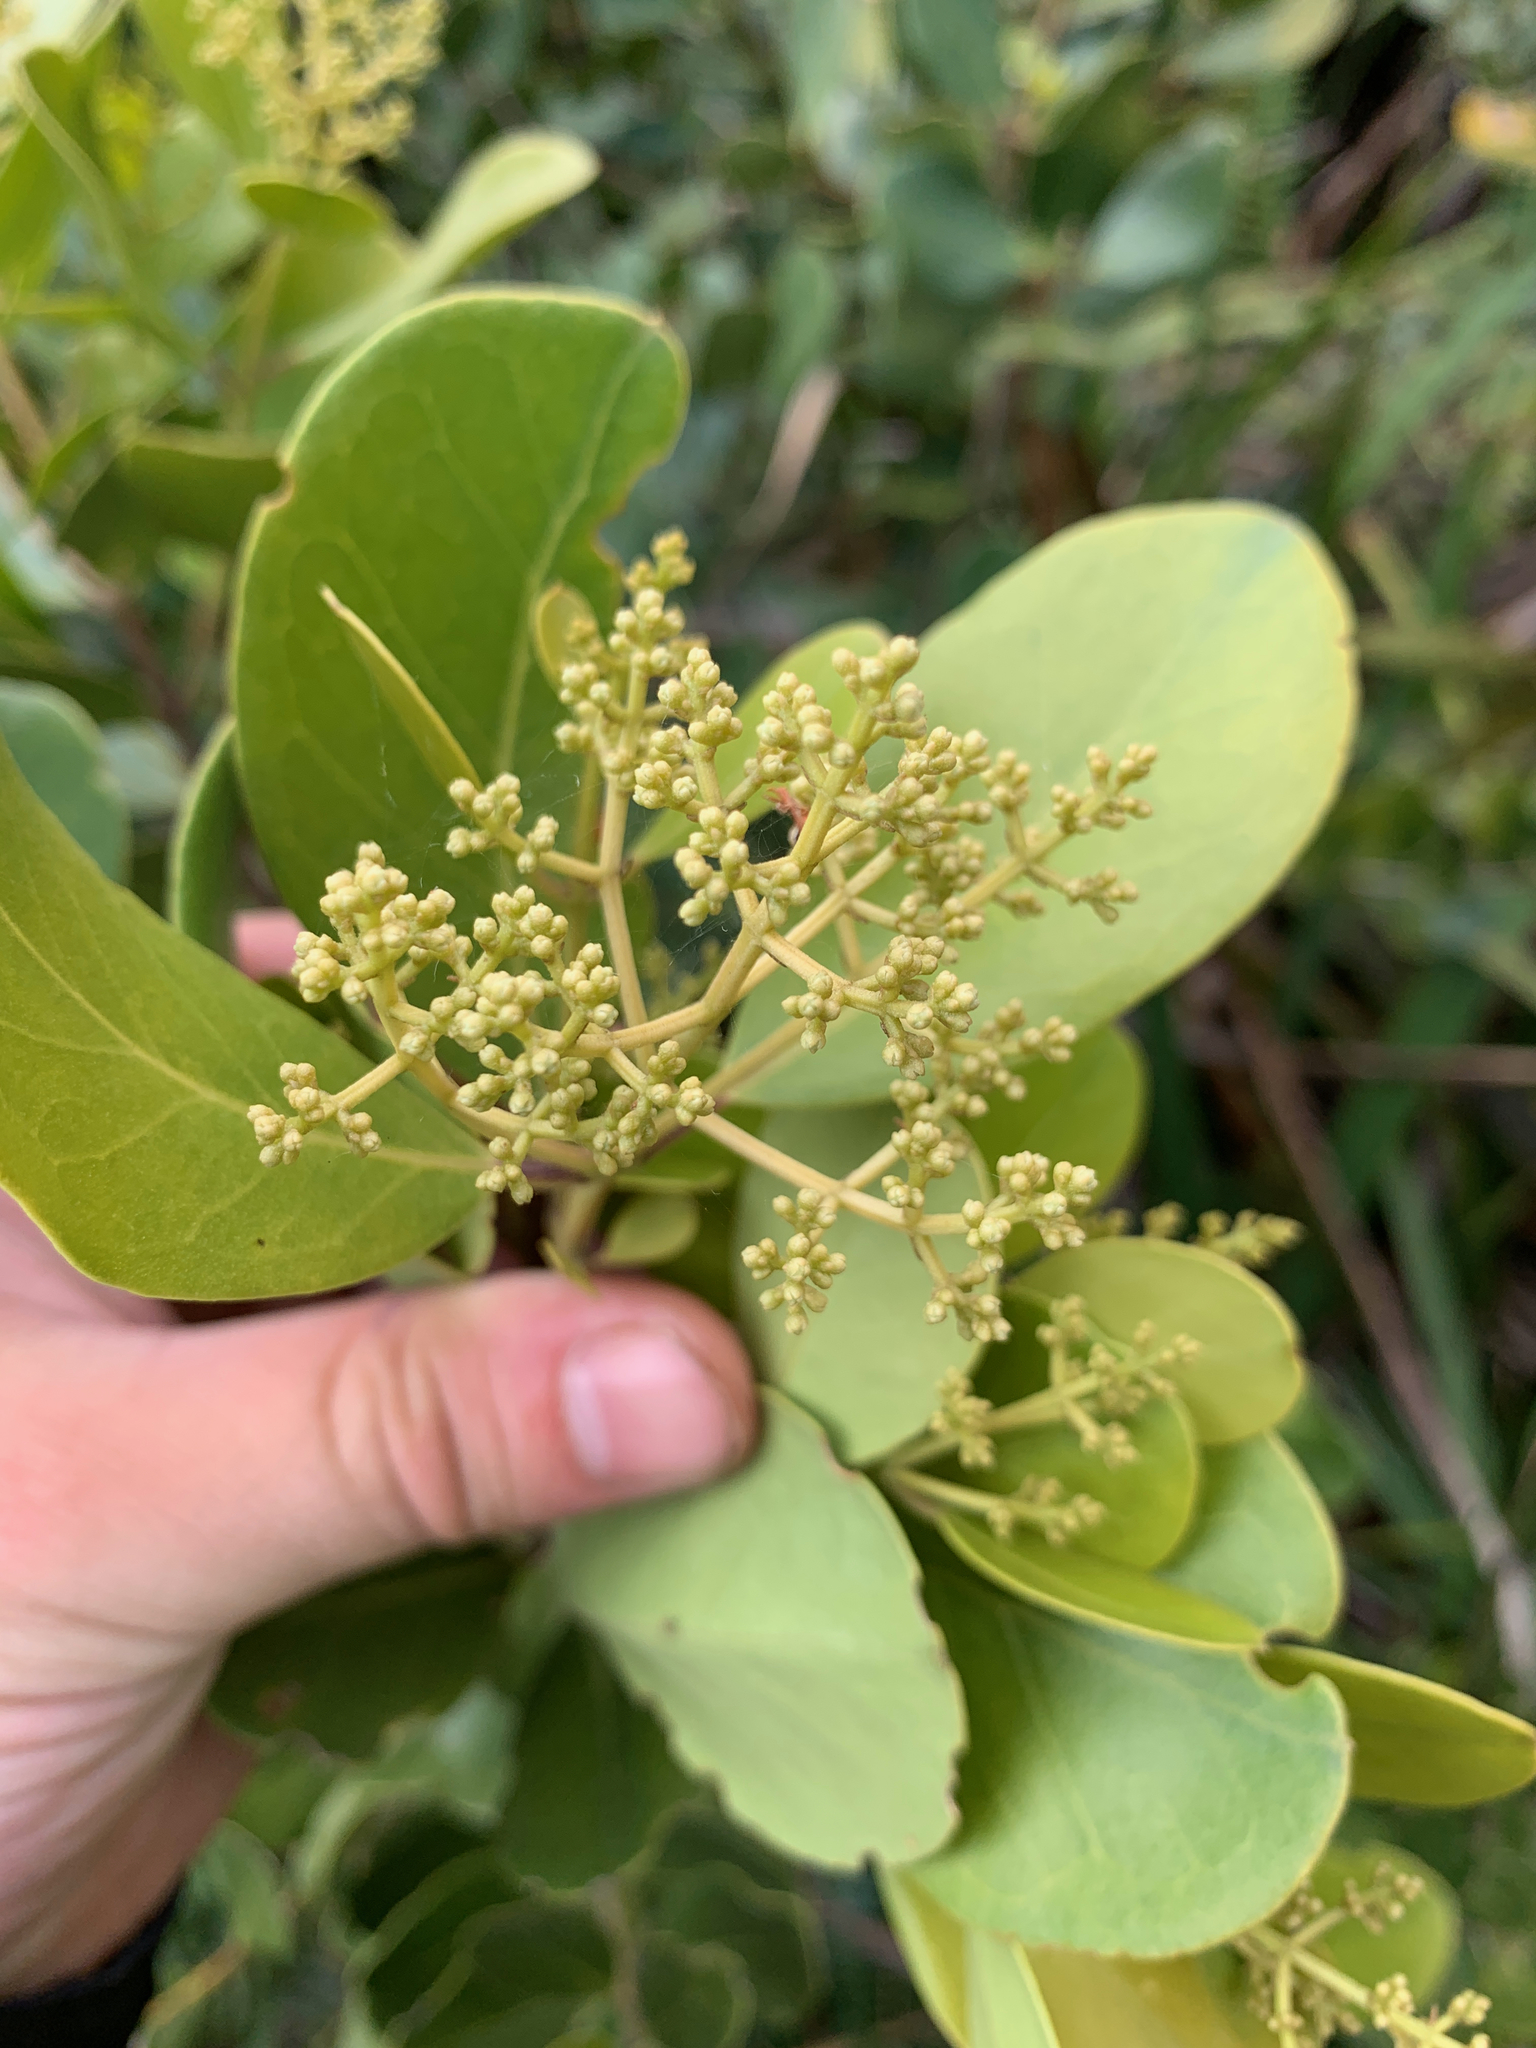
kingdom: Plantae
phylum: Tracheophyta
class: Magnoliopsida
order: Lamiales
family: Oleaceae
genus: Olea
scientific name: Olea capensis
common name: Black ironwood
